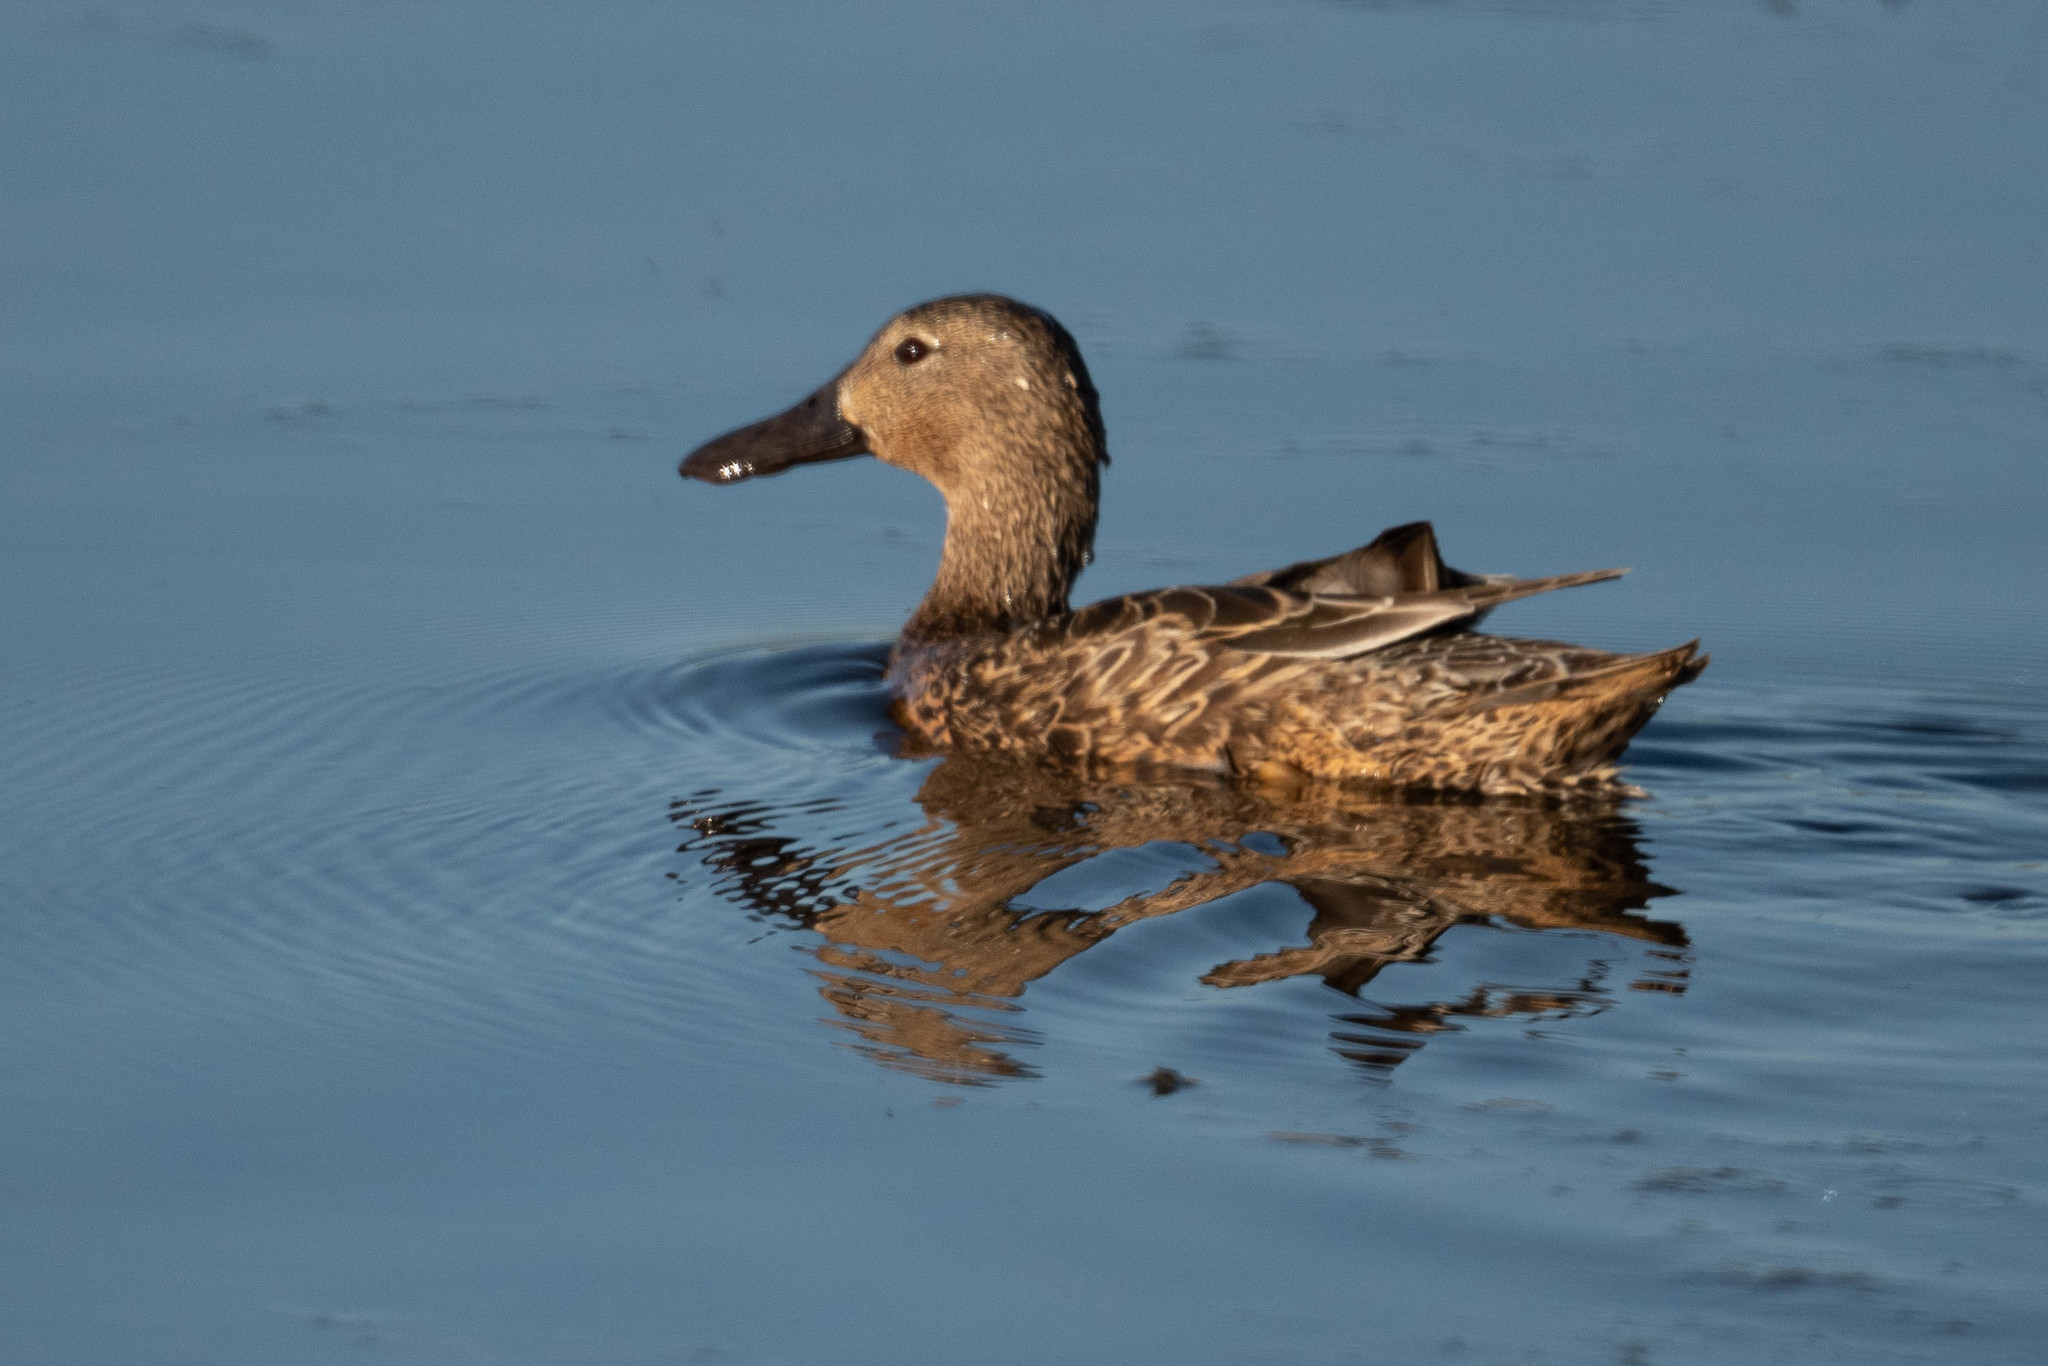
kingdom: Animalia
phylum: Chordata
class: Aves
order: Anseriformes
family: Anatidae
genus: Spatula
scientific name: Spatula cyanoptera
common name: Cinnamon teal
